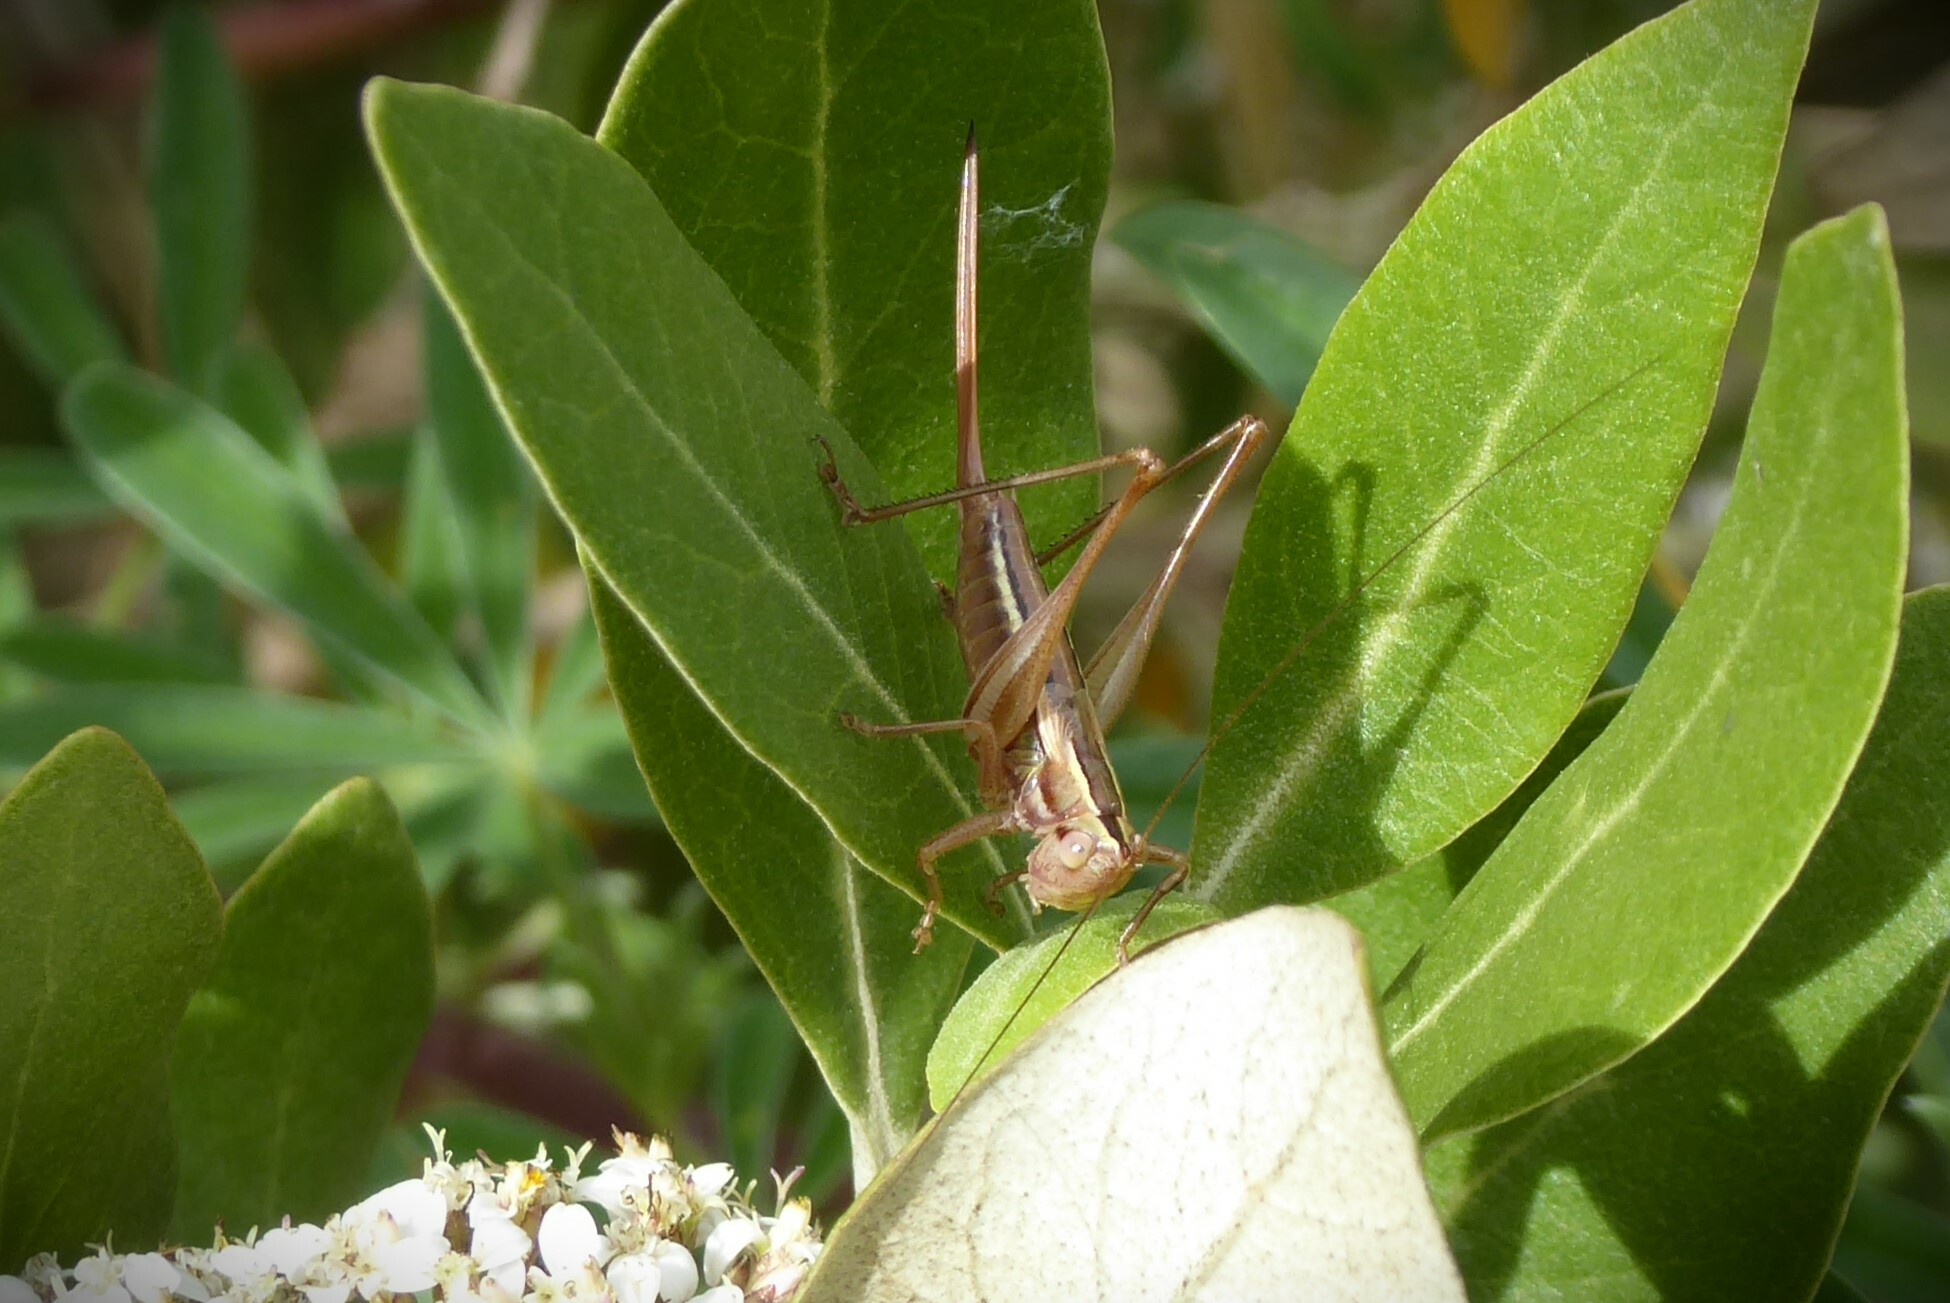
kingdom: Animalia
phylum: Arthropoda
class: Insecta
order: Orthoptera
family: Tettigoniidae
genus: Conocephalus
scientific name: Conocephalus bilineatus
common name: Small meadow katydid
